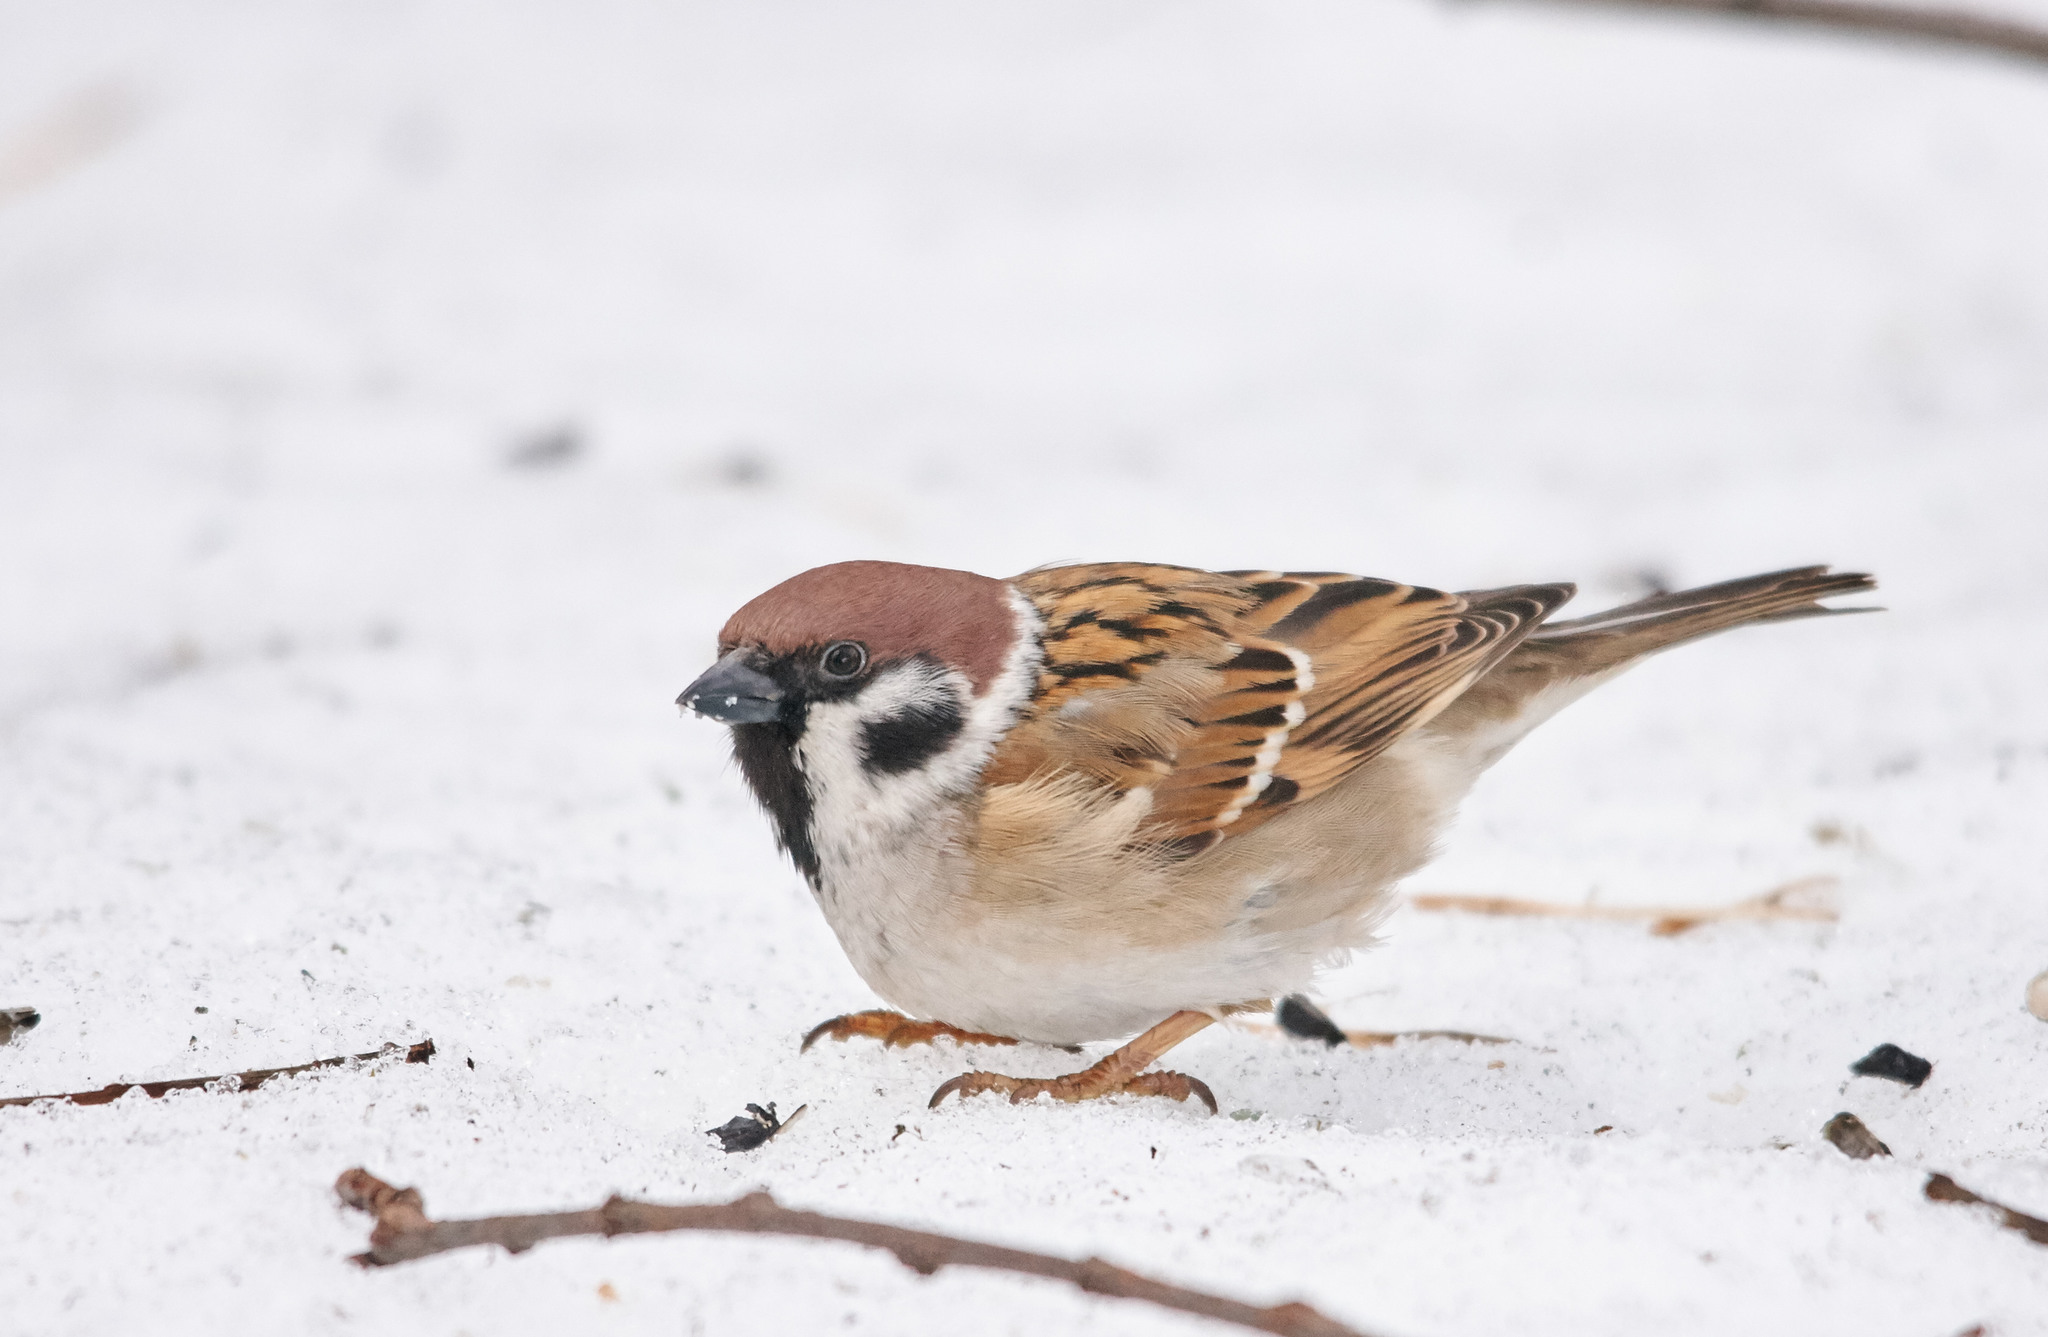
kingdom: Animalia
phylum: Chordata
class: Aves
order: Passeriformes
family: Passeridae
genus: Passer
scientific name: Passer montanus
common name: Eurasian tree sparrow
